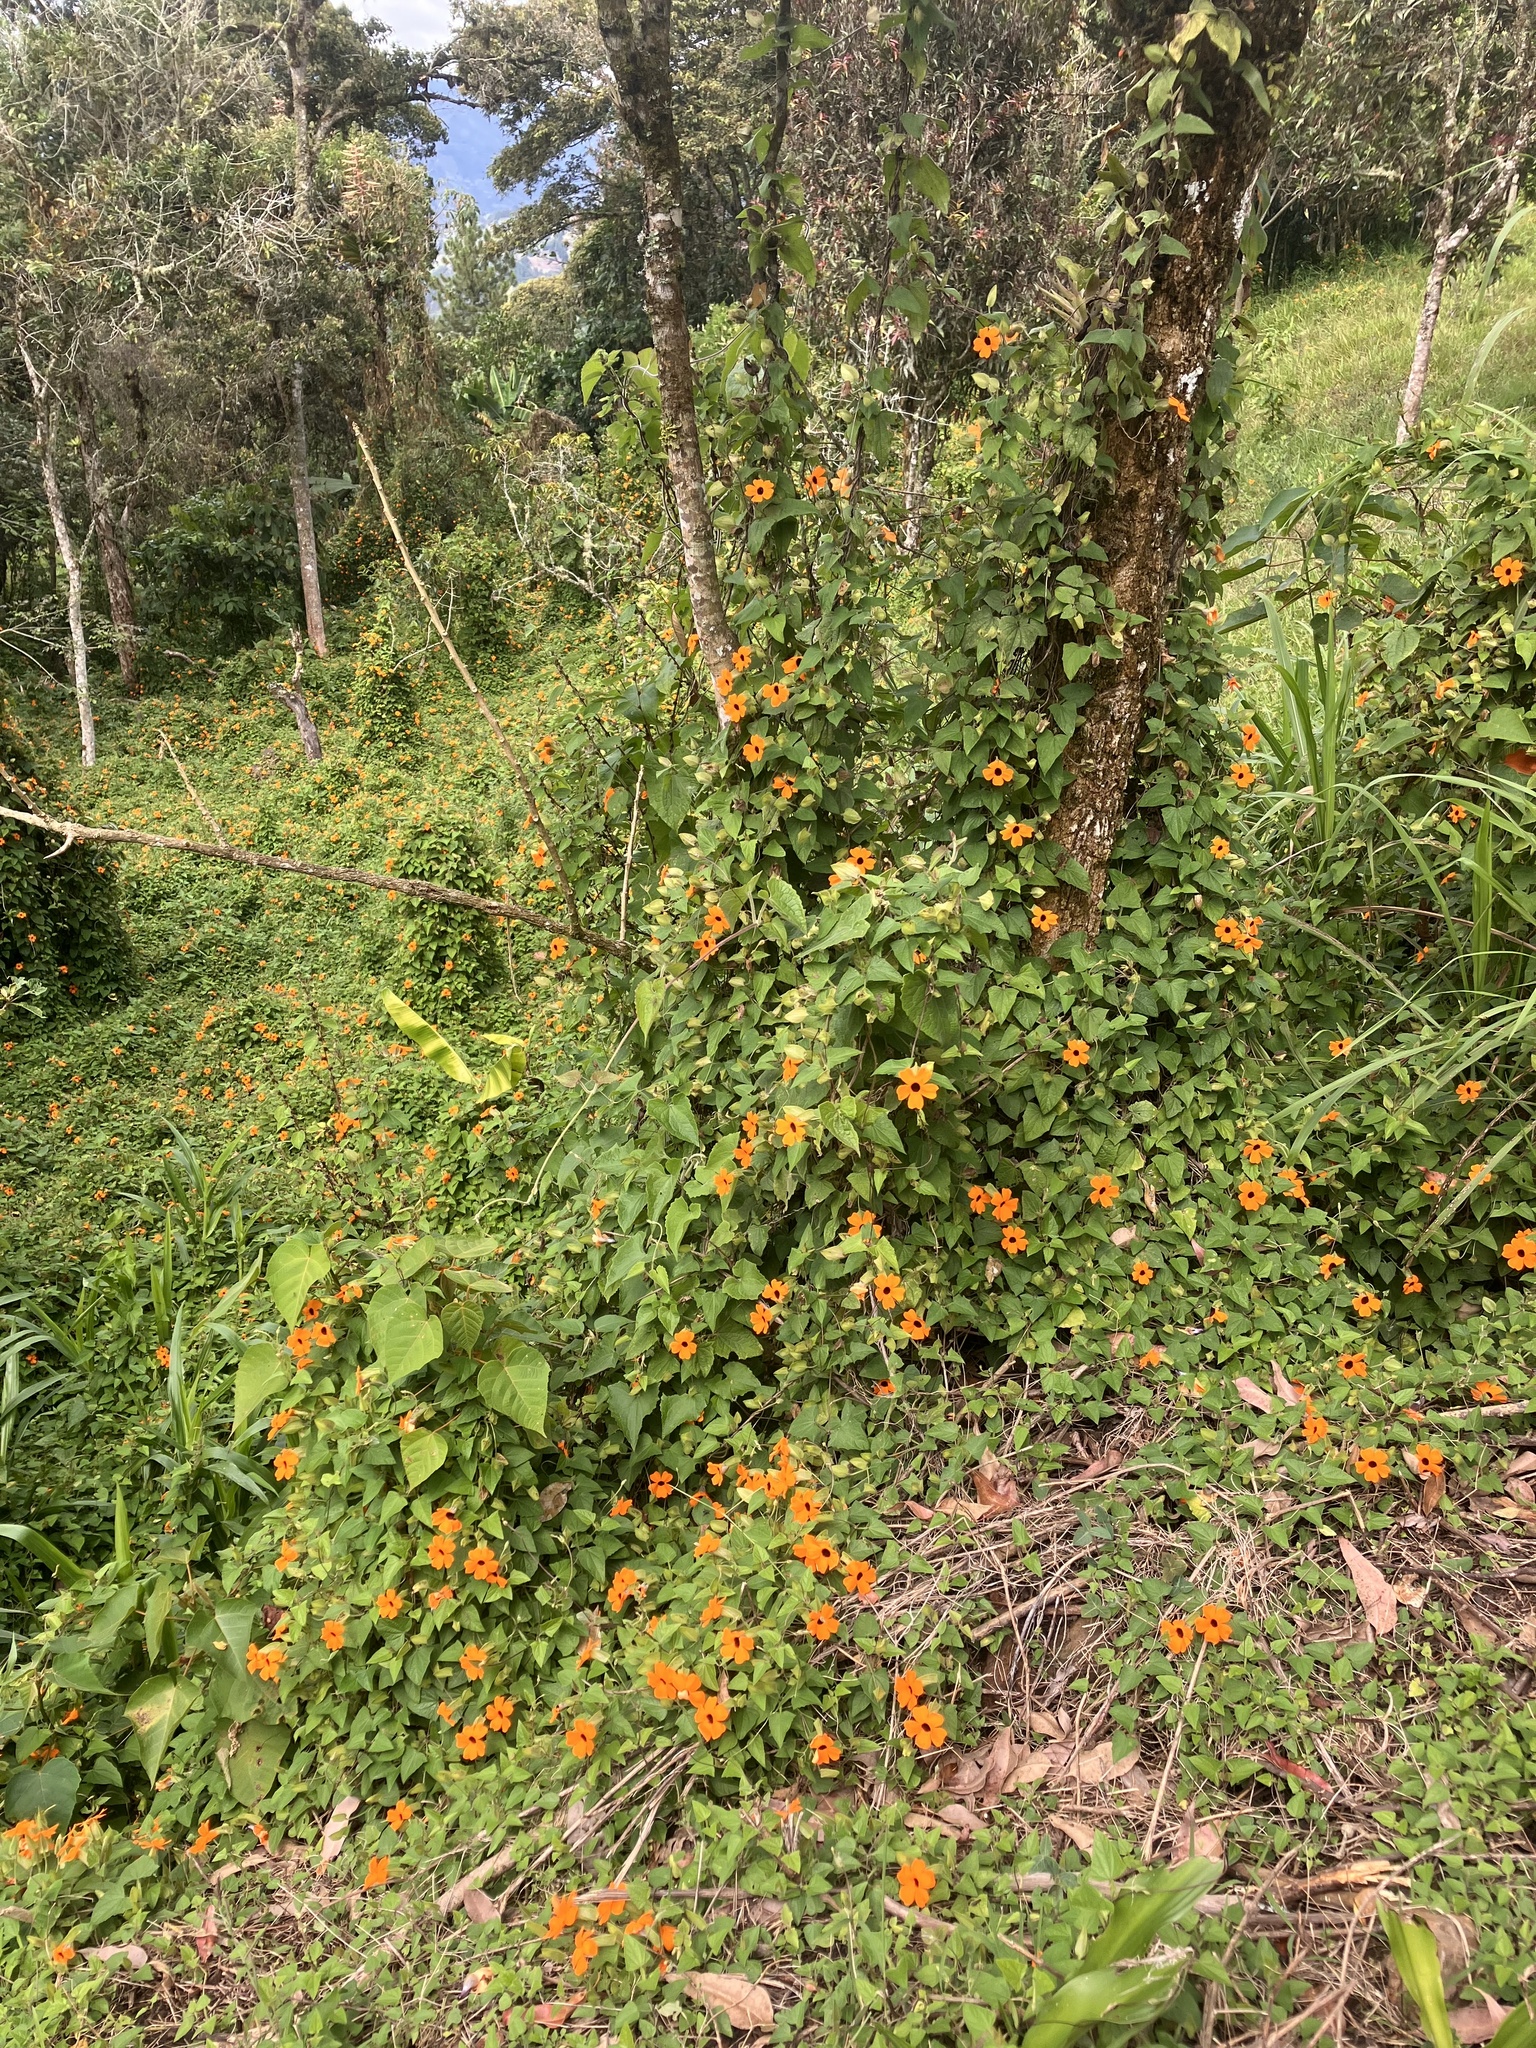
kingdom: Plantae
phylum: Tracheophyta
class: Magnoliopsida
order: Lamiales
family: Acanthaceae
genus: Thunbergia
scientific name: Thunbergia alata
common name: Blackeyed susan vine
